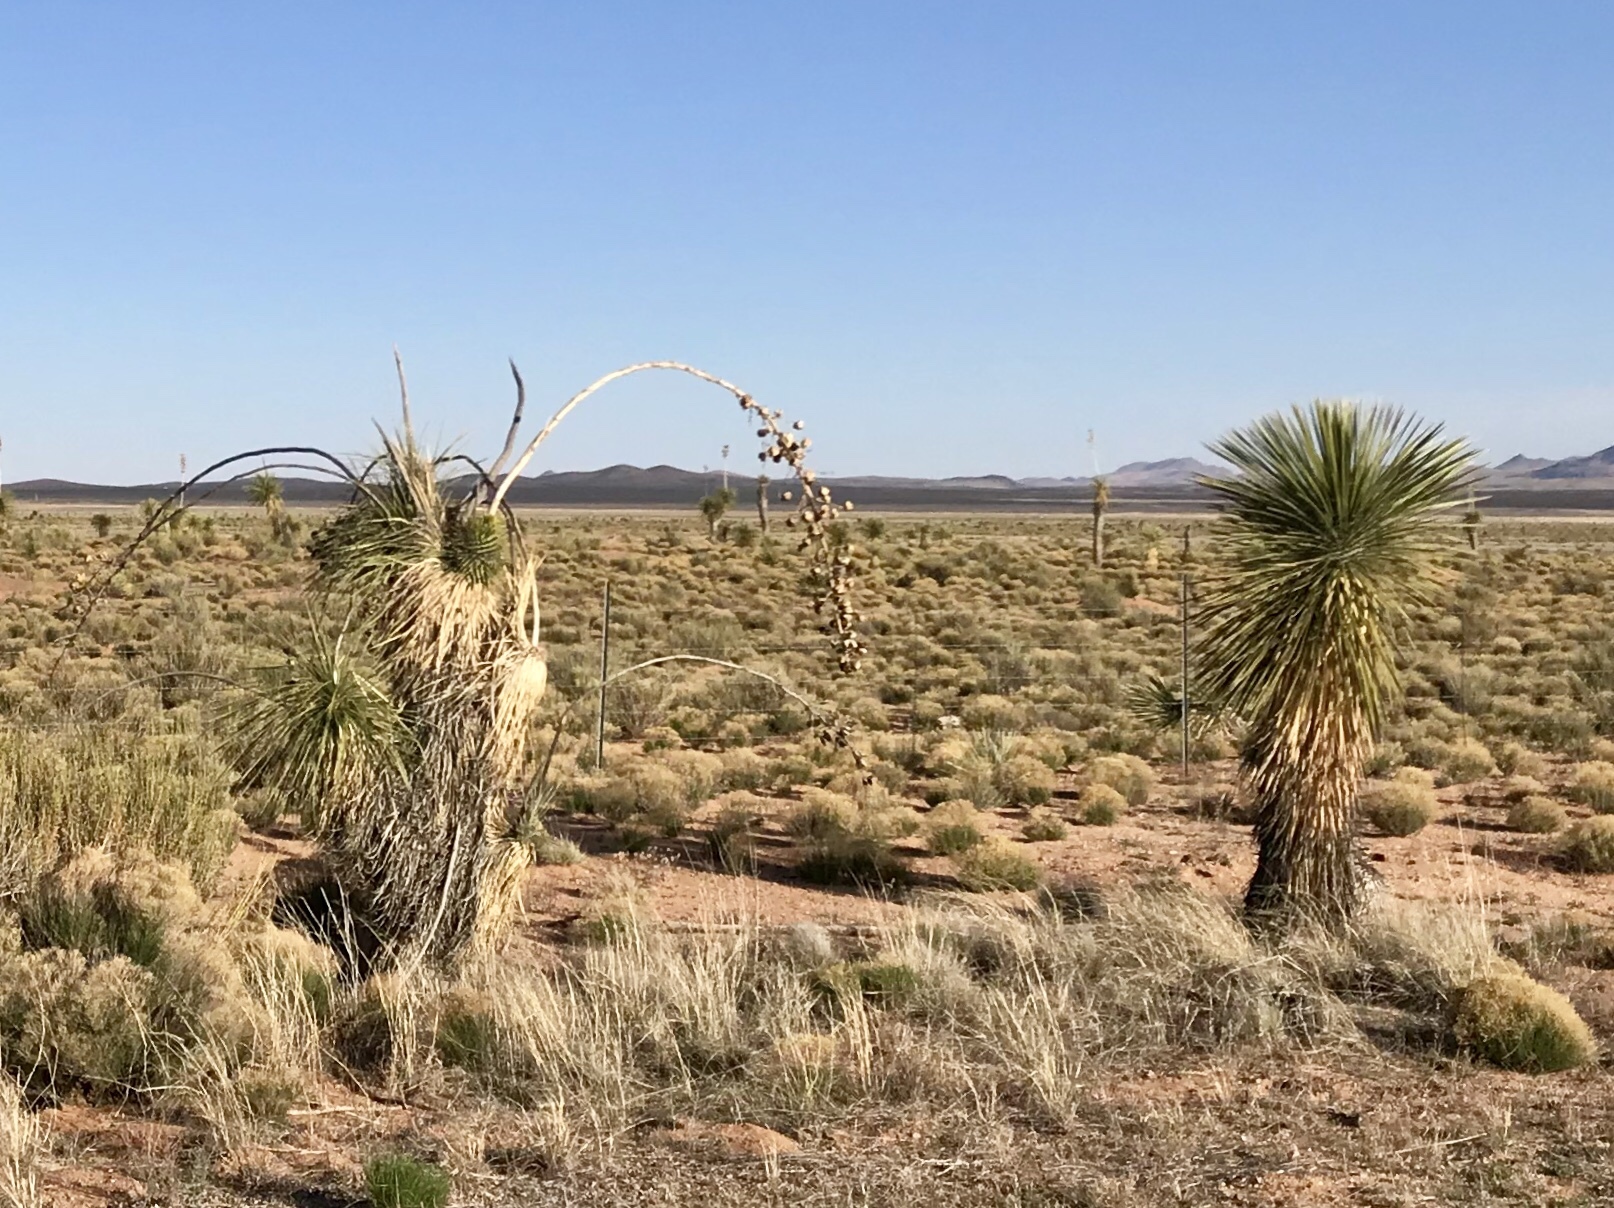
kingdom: Plantae
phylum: Tracheophyta
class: Liliopsida
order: Asparagales
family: Asparagaceae
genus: Yucca
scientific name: Yucca elata
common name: Palmella
